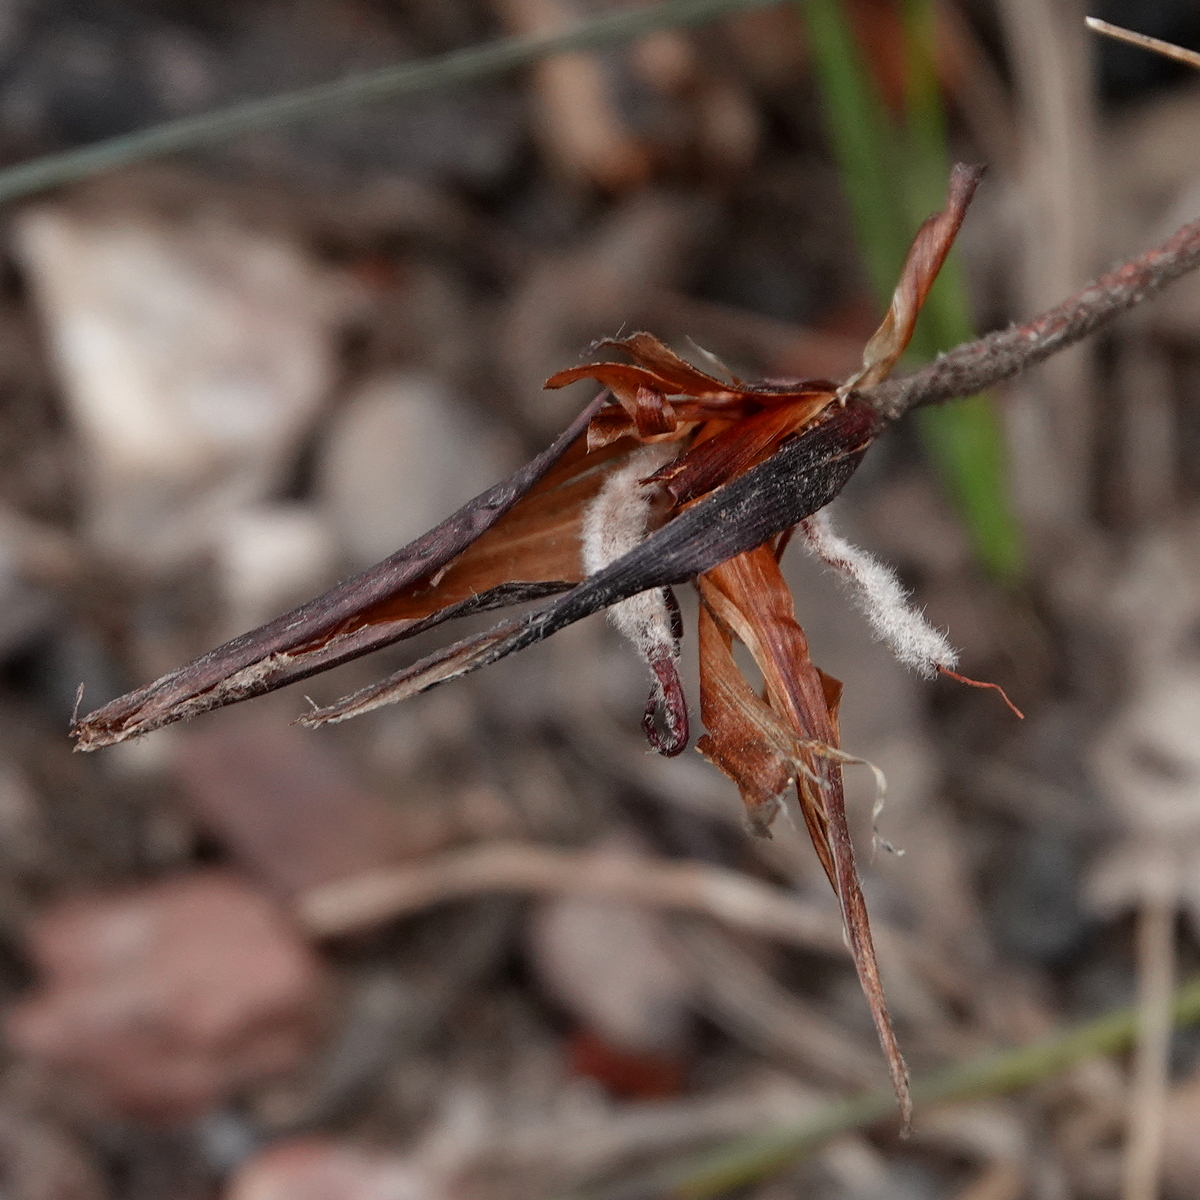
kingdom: Plantae
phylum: Tracheophyta
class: Liliopsida
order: Asparagales
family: Iridaceae
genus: Patersonia
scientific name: Patersonia sericea
